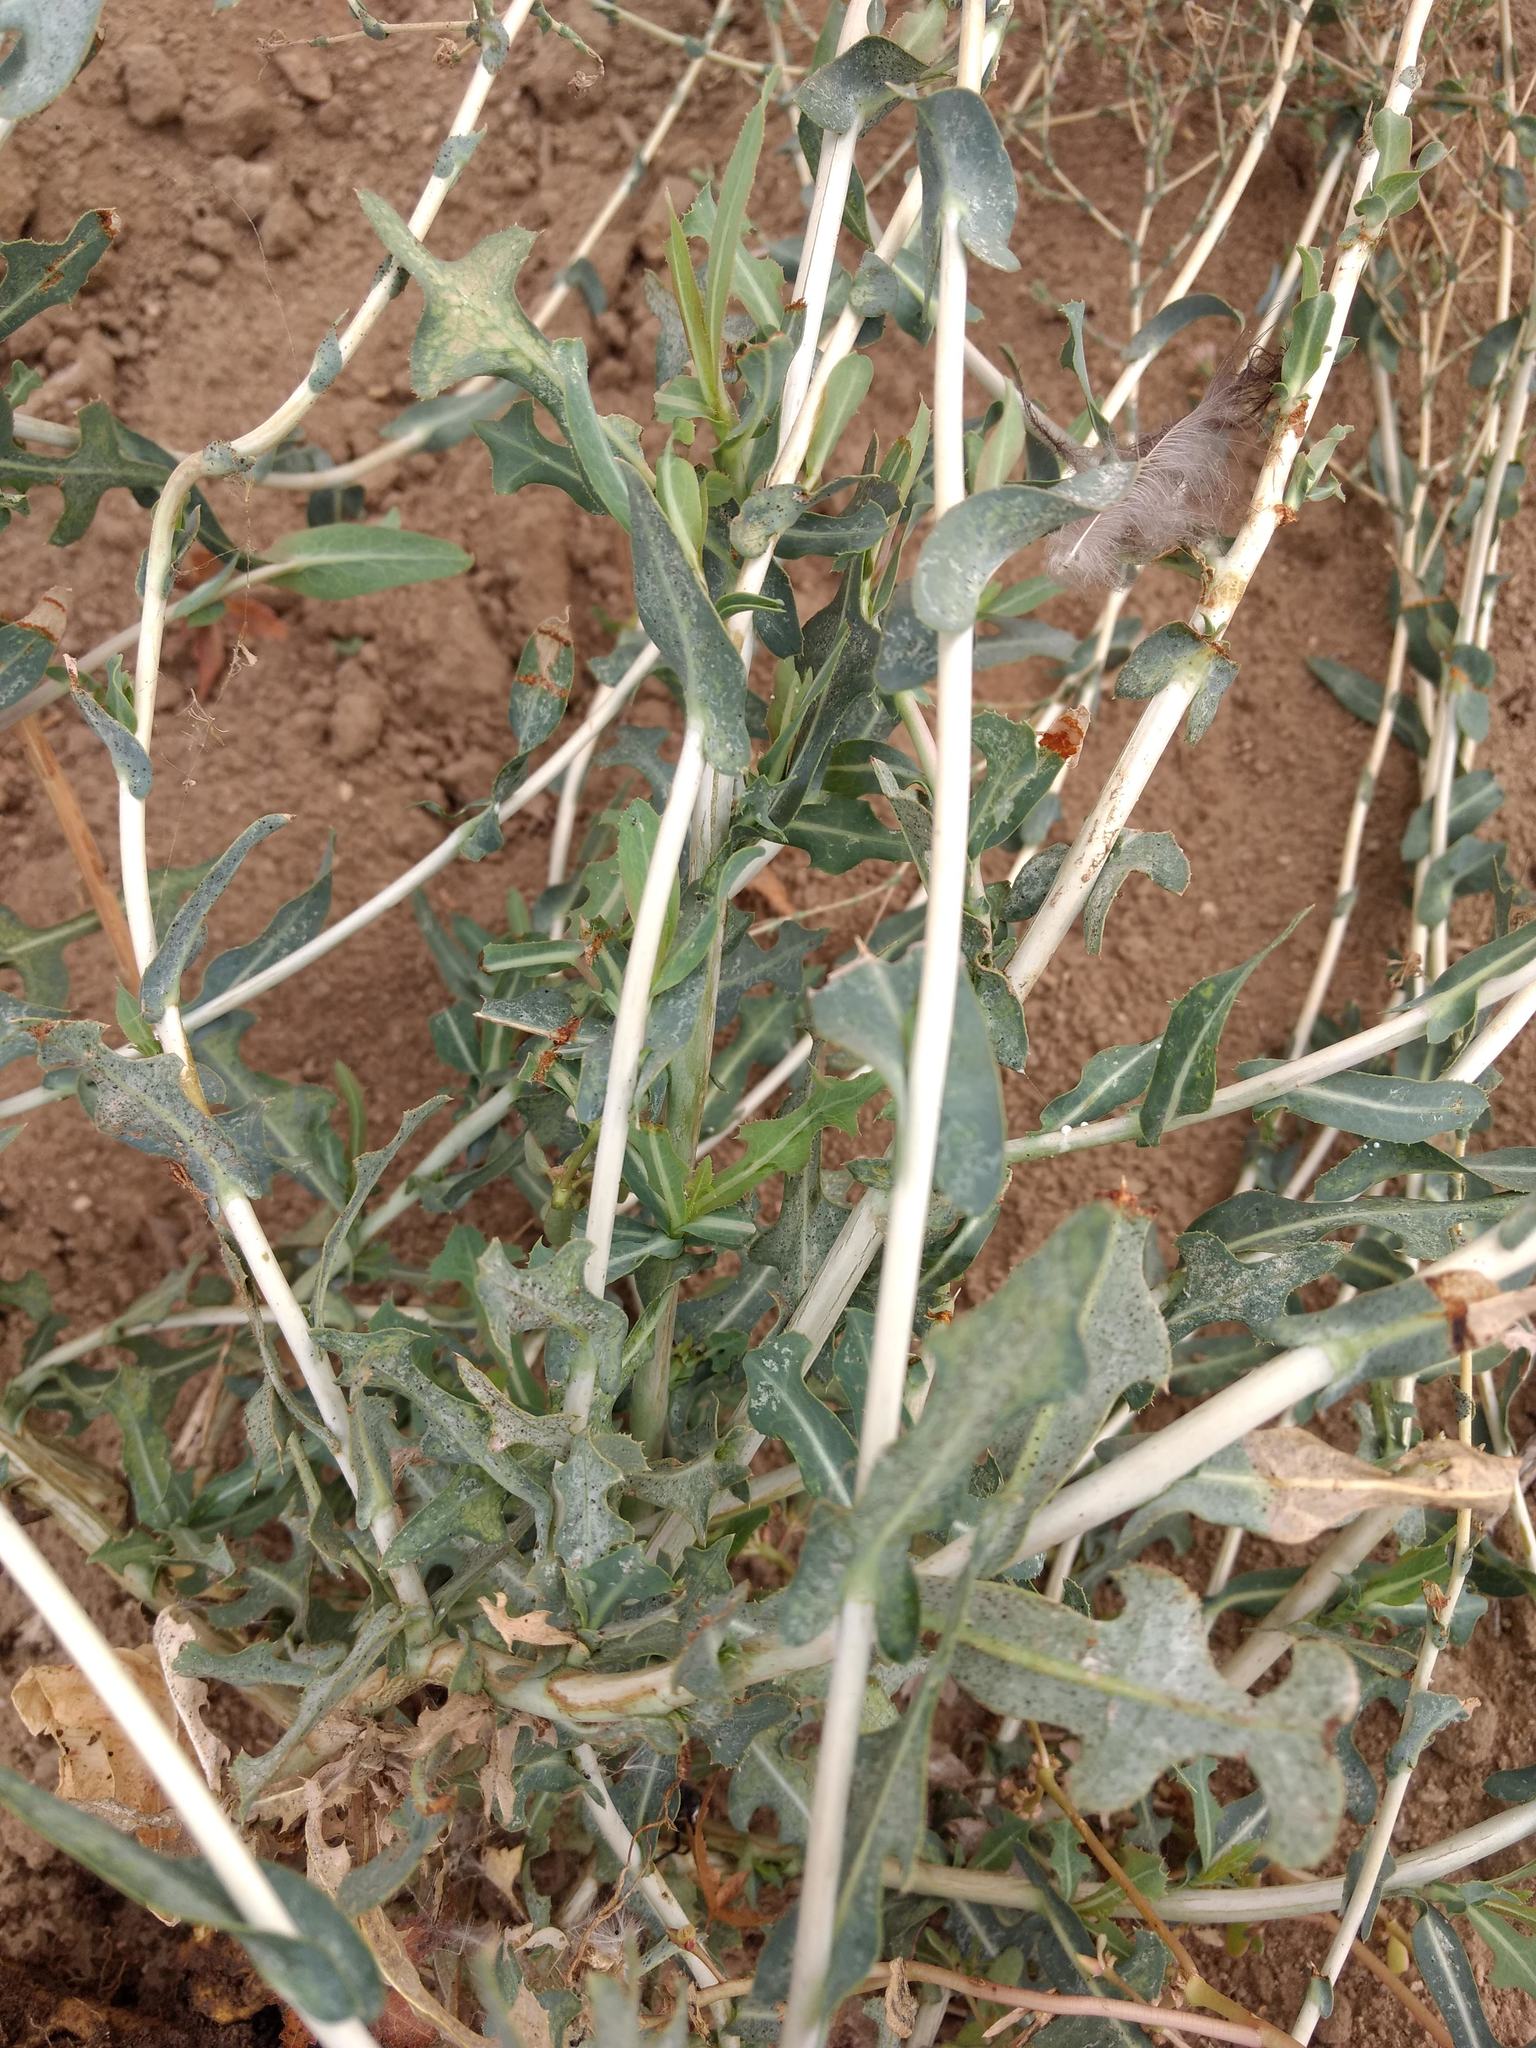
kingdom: Plantae
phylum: Tracheophyta
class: Magnoliopsida
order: Asterales
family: Asteraceae
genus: Lactuca
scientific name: Lactuca serriola
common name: Prickly lettuce
